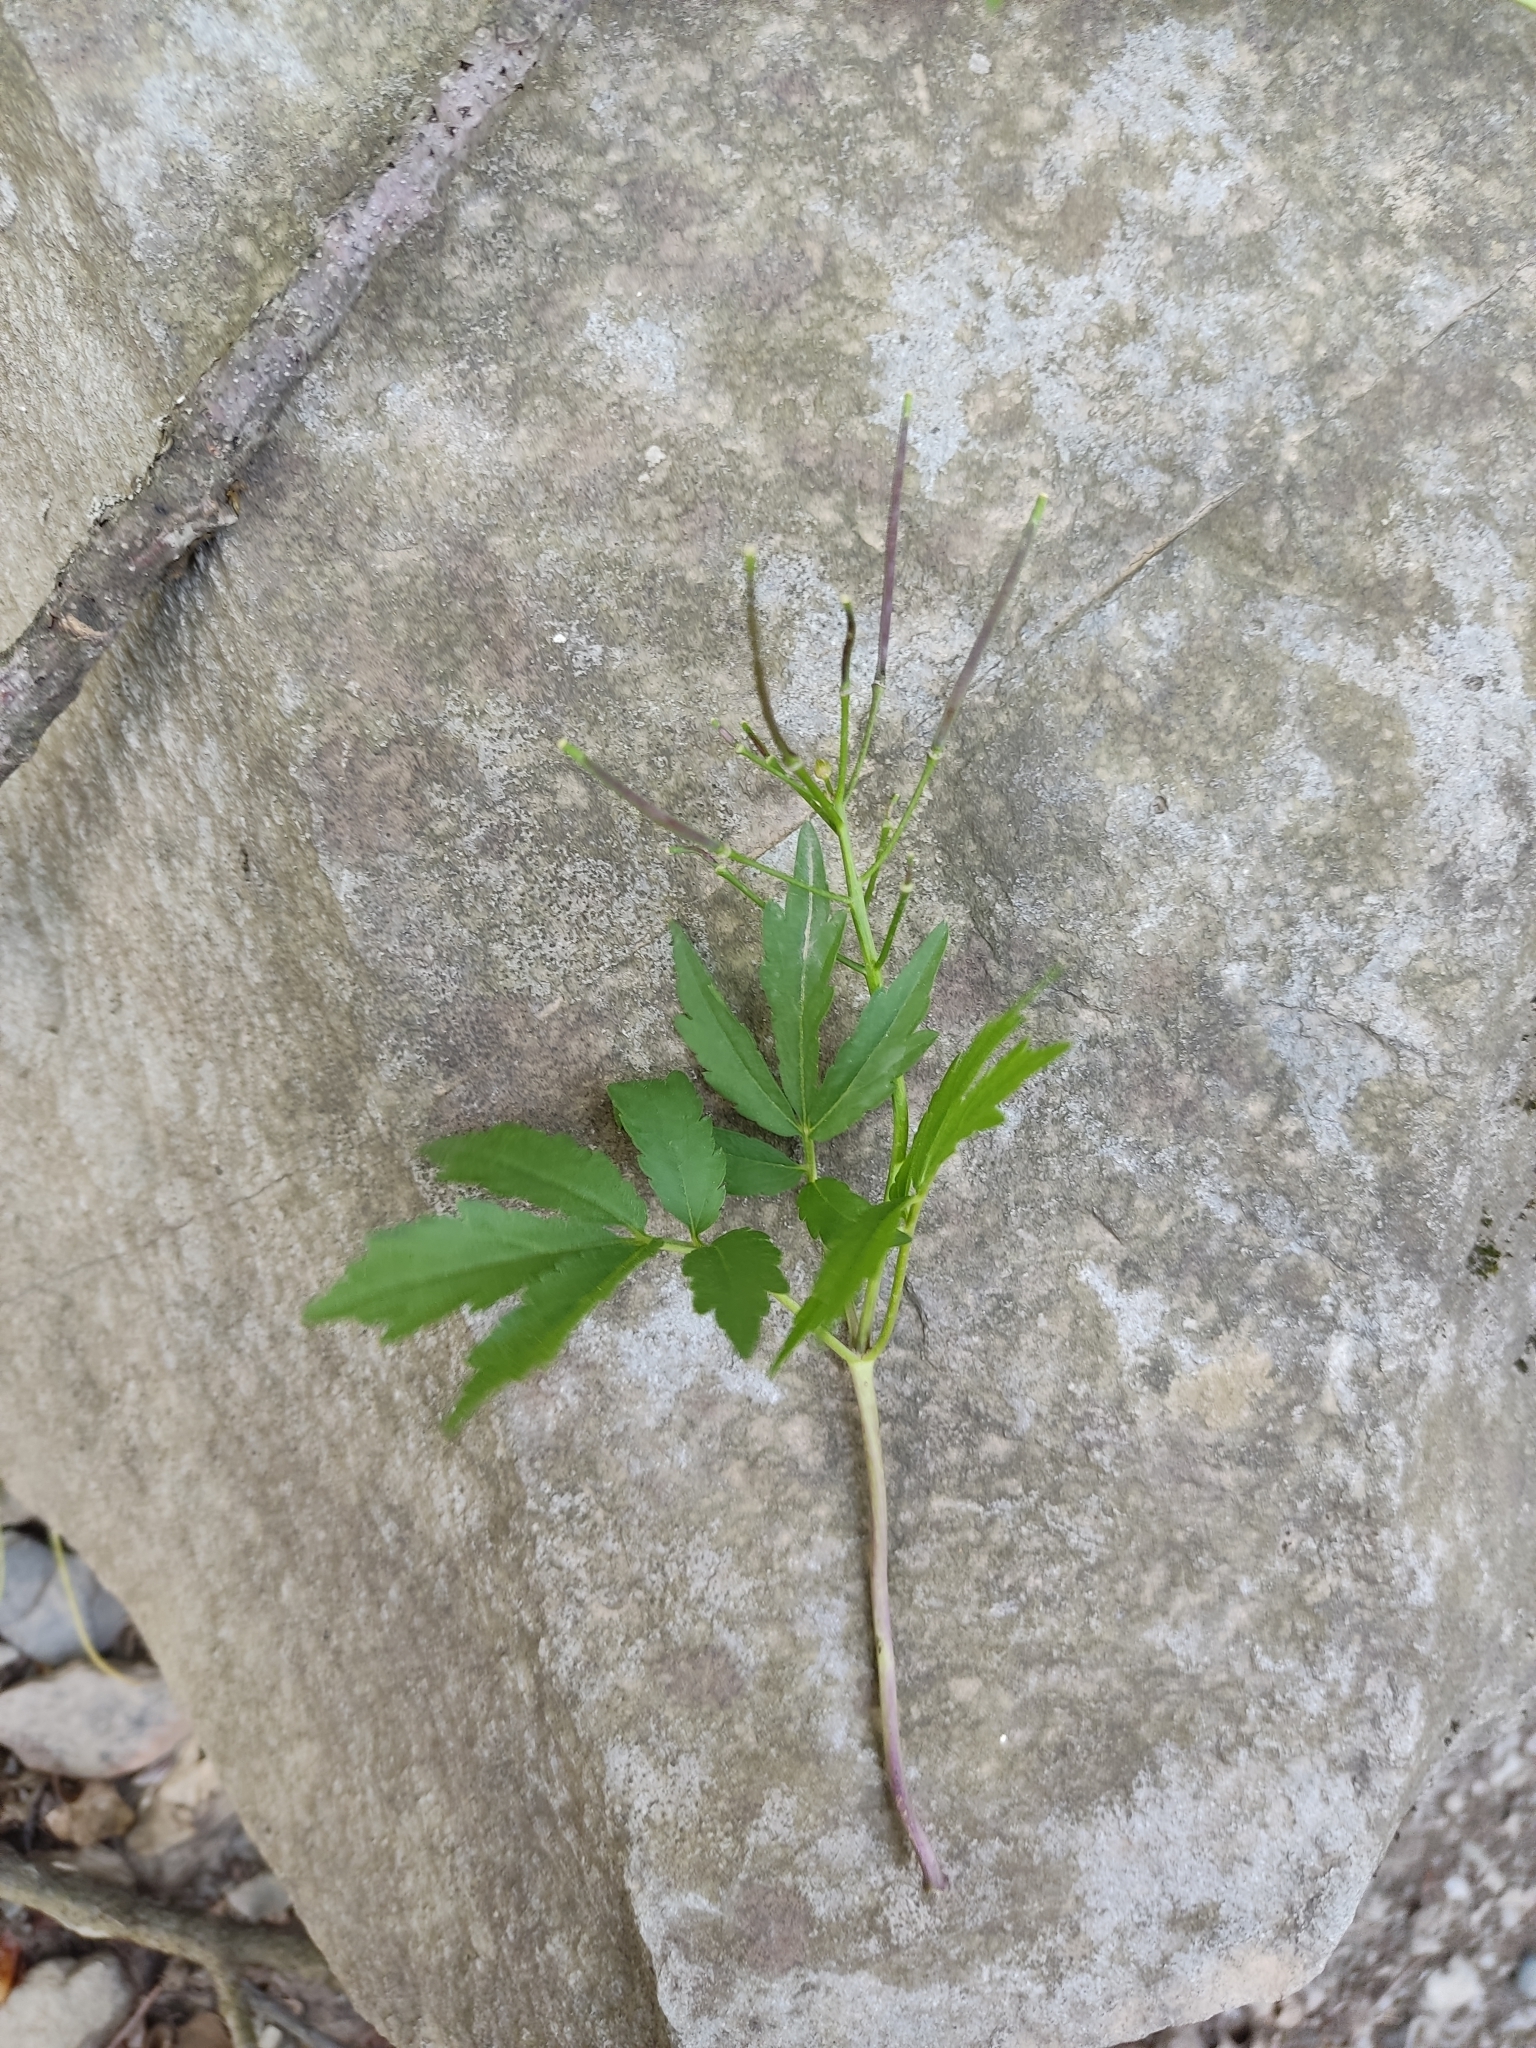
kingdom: Plantae
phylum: Tracheophyta
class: Magnoliopsida
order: Brassicales
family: Brassicaceae
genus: Cardamine
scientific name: Cardamine bulbifera
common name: Coralroot bittercress
